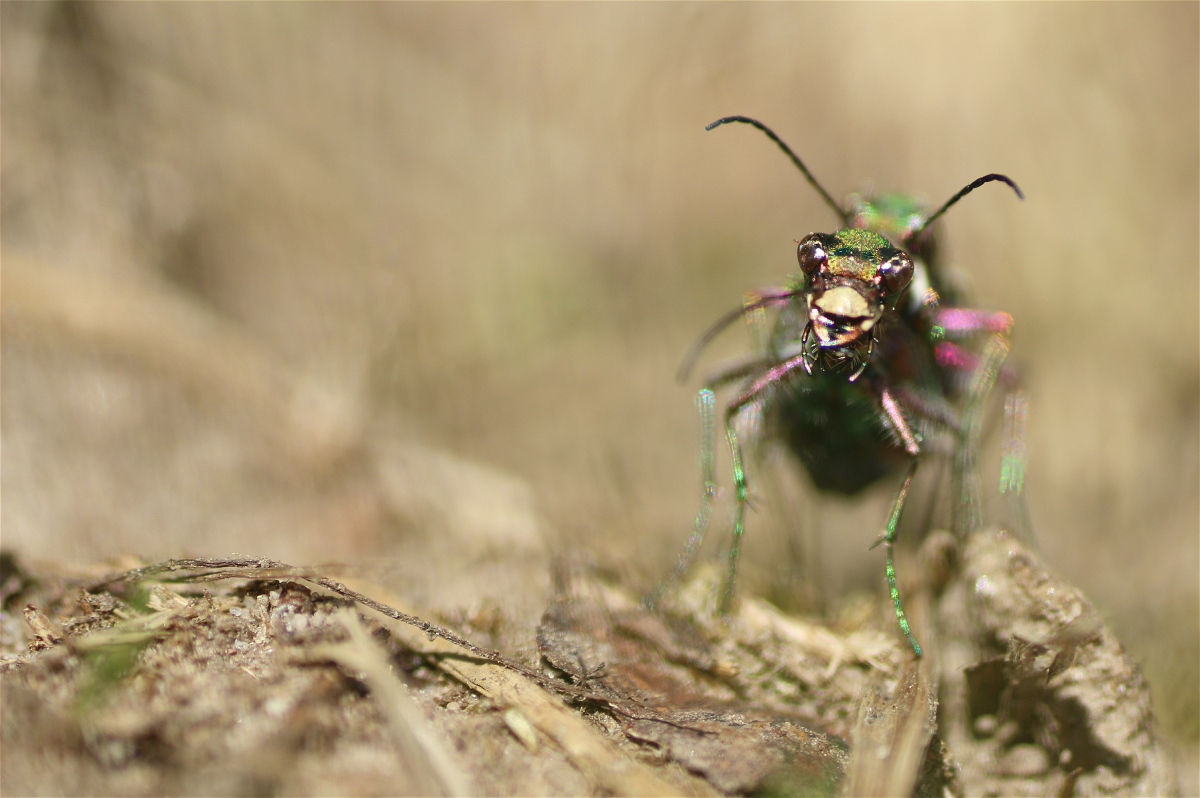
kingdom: Animalia
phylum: Arthropoda
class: Insecta
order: Coleoptera
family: Carabidae
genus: Cicindela
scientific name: Cicindela campestris
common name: Common tiger beetle
